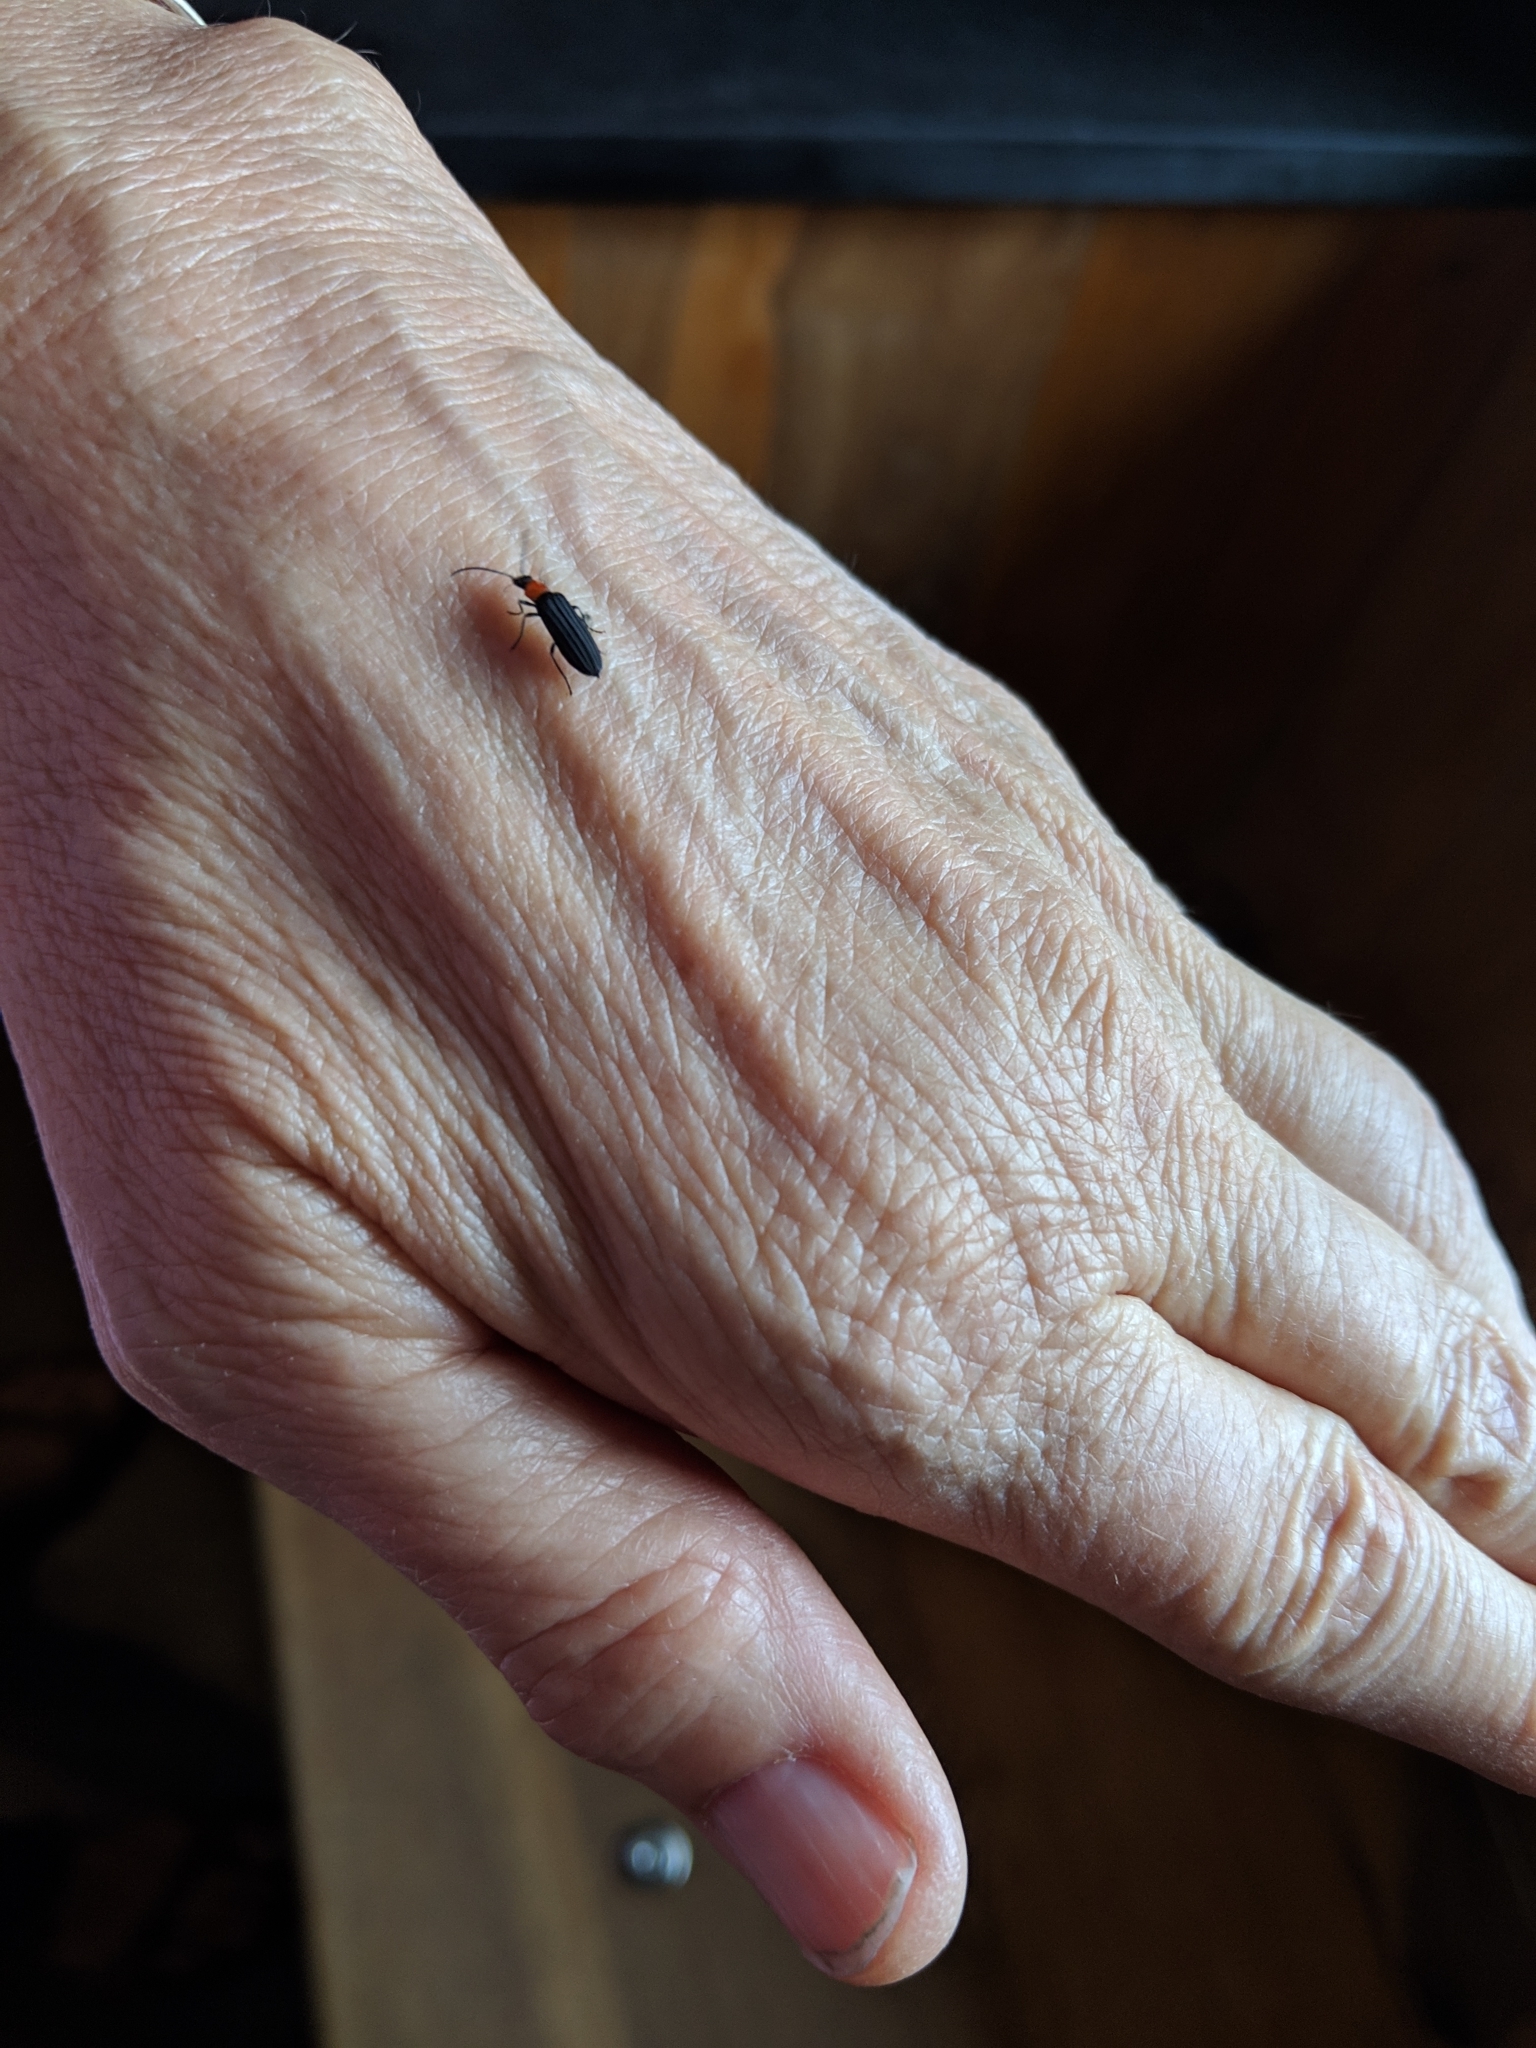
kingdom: Animalia
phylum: Arthropoda
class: Insecta
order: Coleoptera
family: Oedemeridae
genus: Ischnomera
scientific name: Ischnomera
